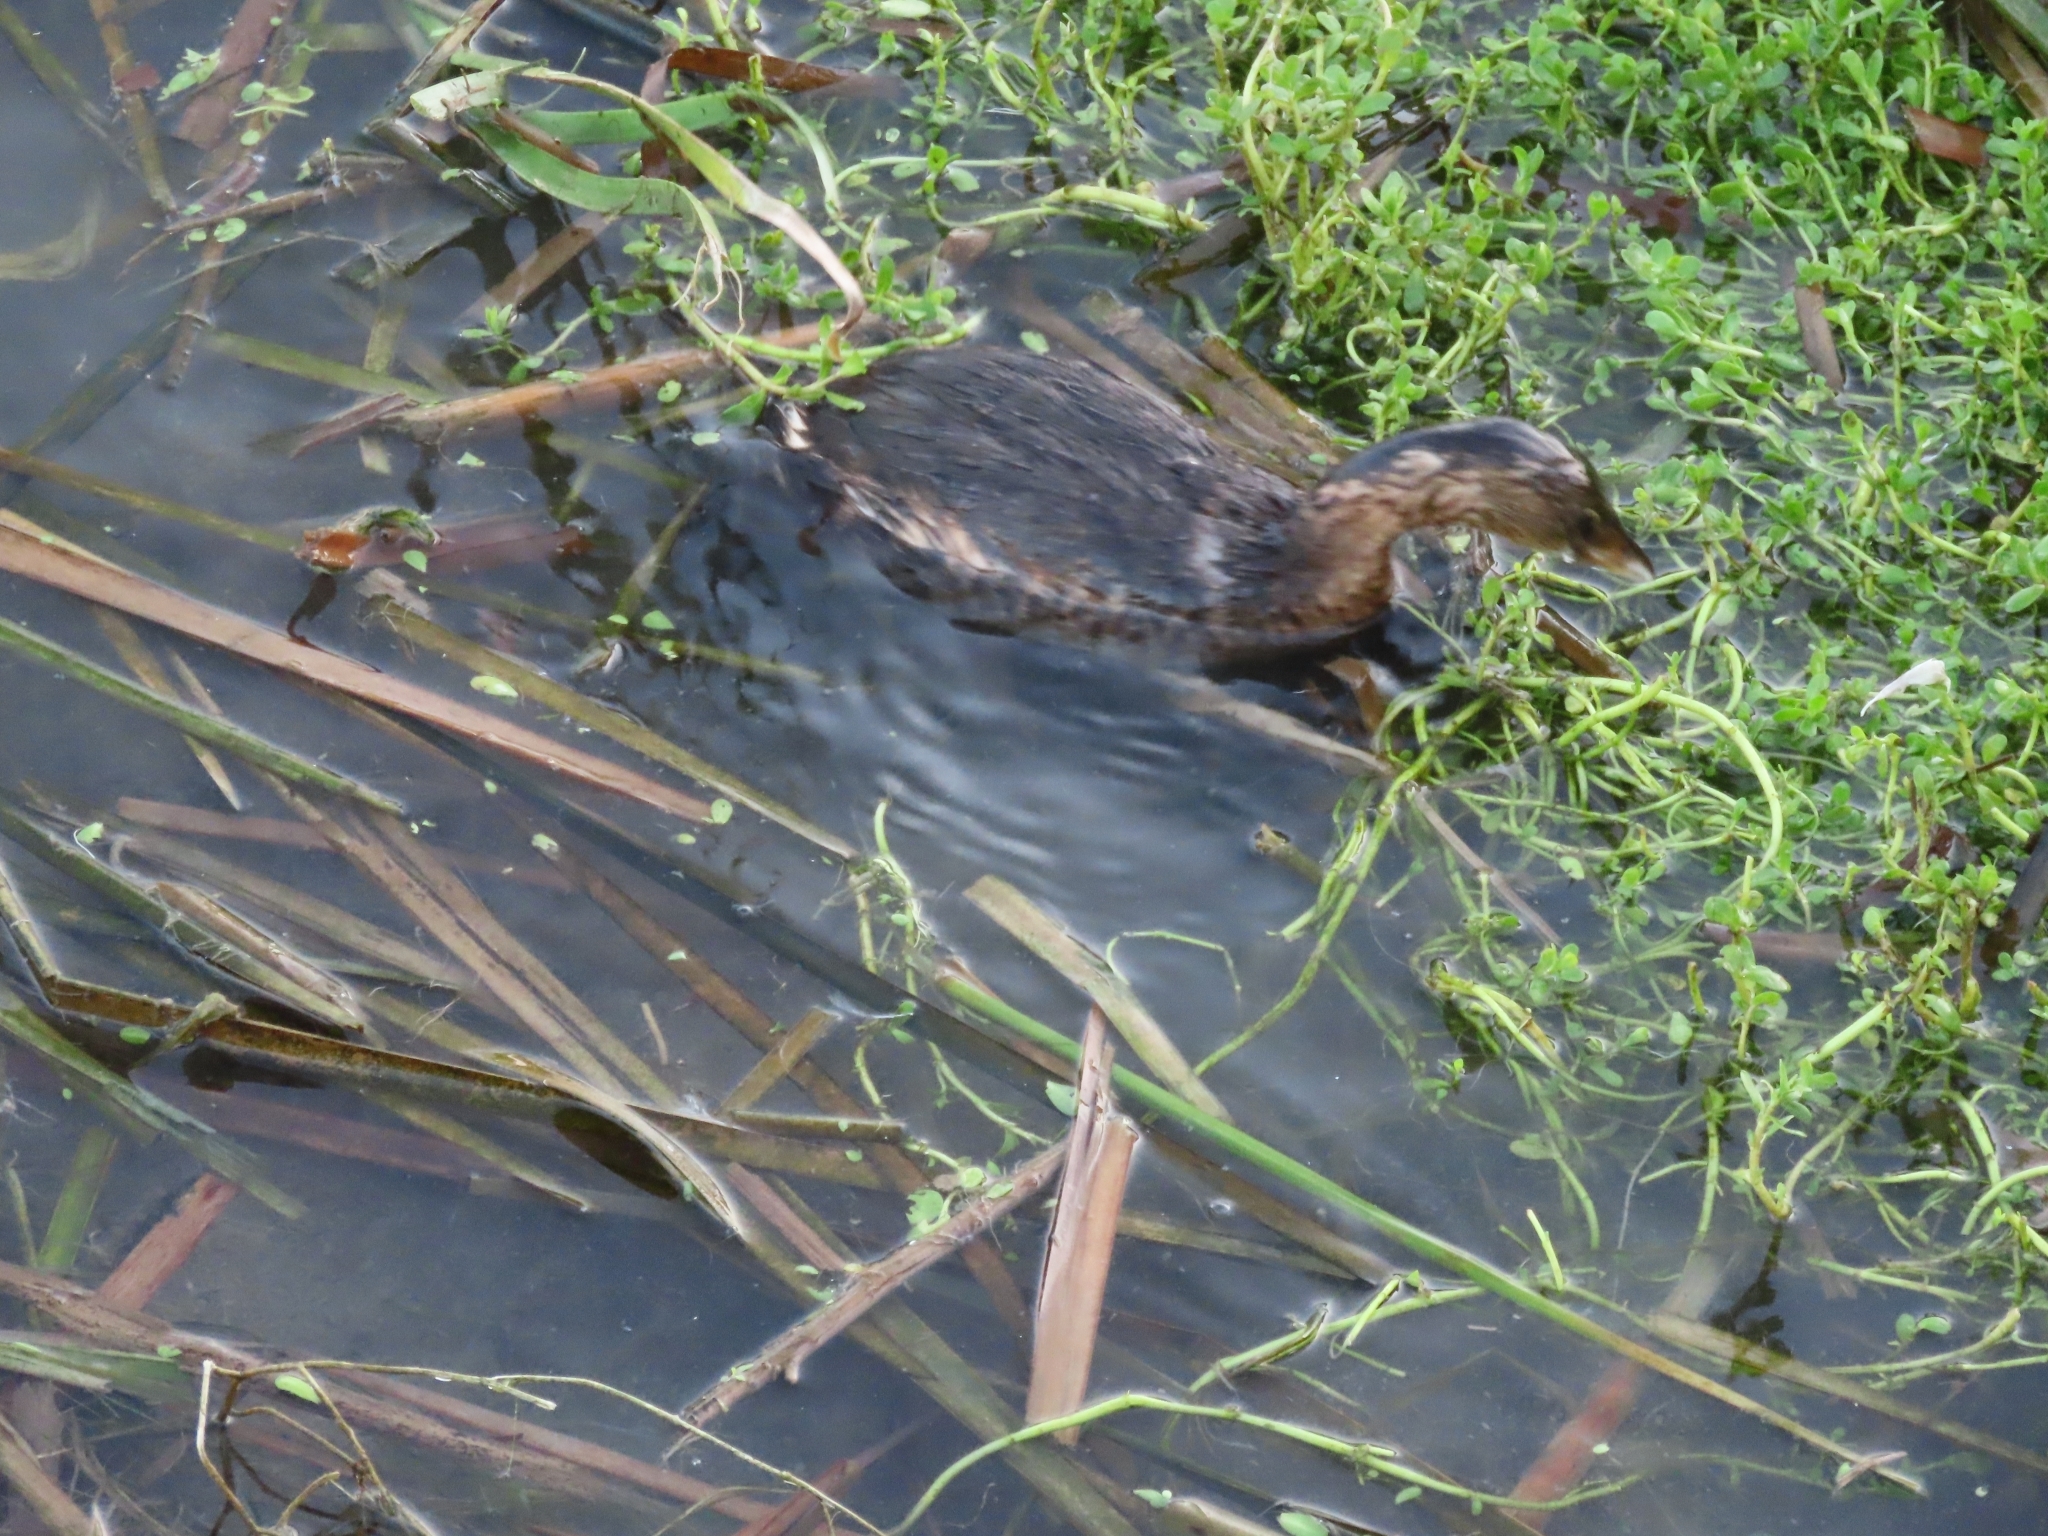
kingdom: Animalia
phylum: Chordata
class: Aves
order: Podicipediformes
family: Podicipedidae
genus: Podilymbus
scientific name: Podilymbus podiceps
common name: Pied-billed grebe
